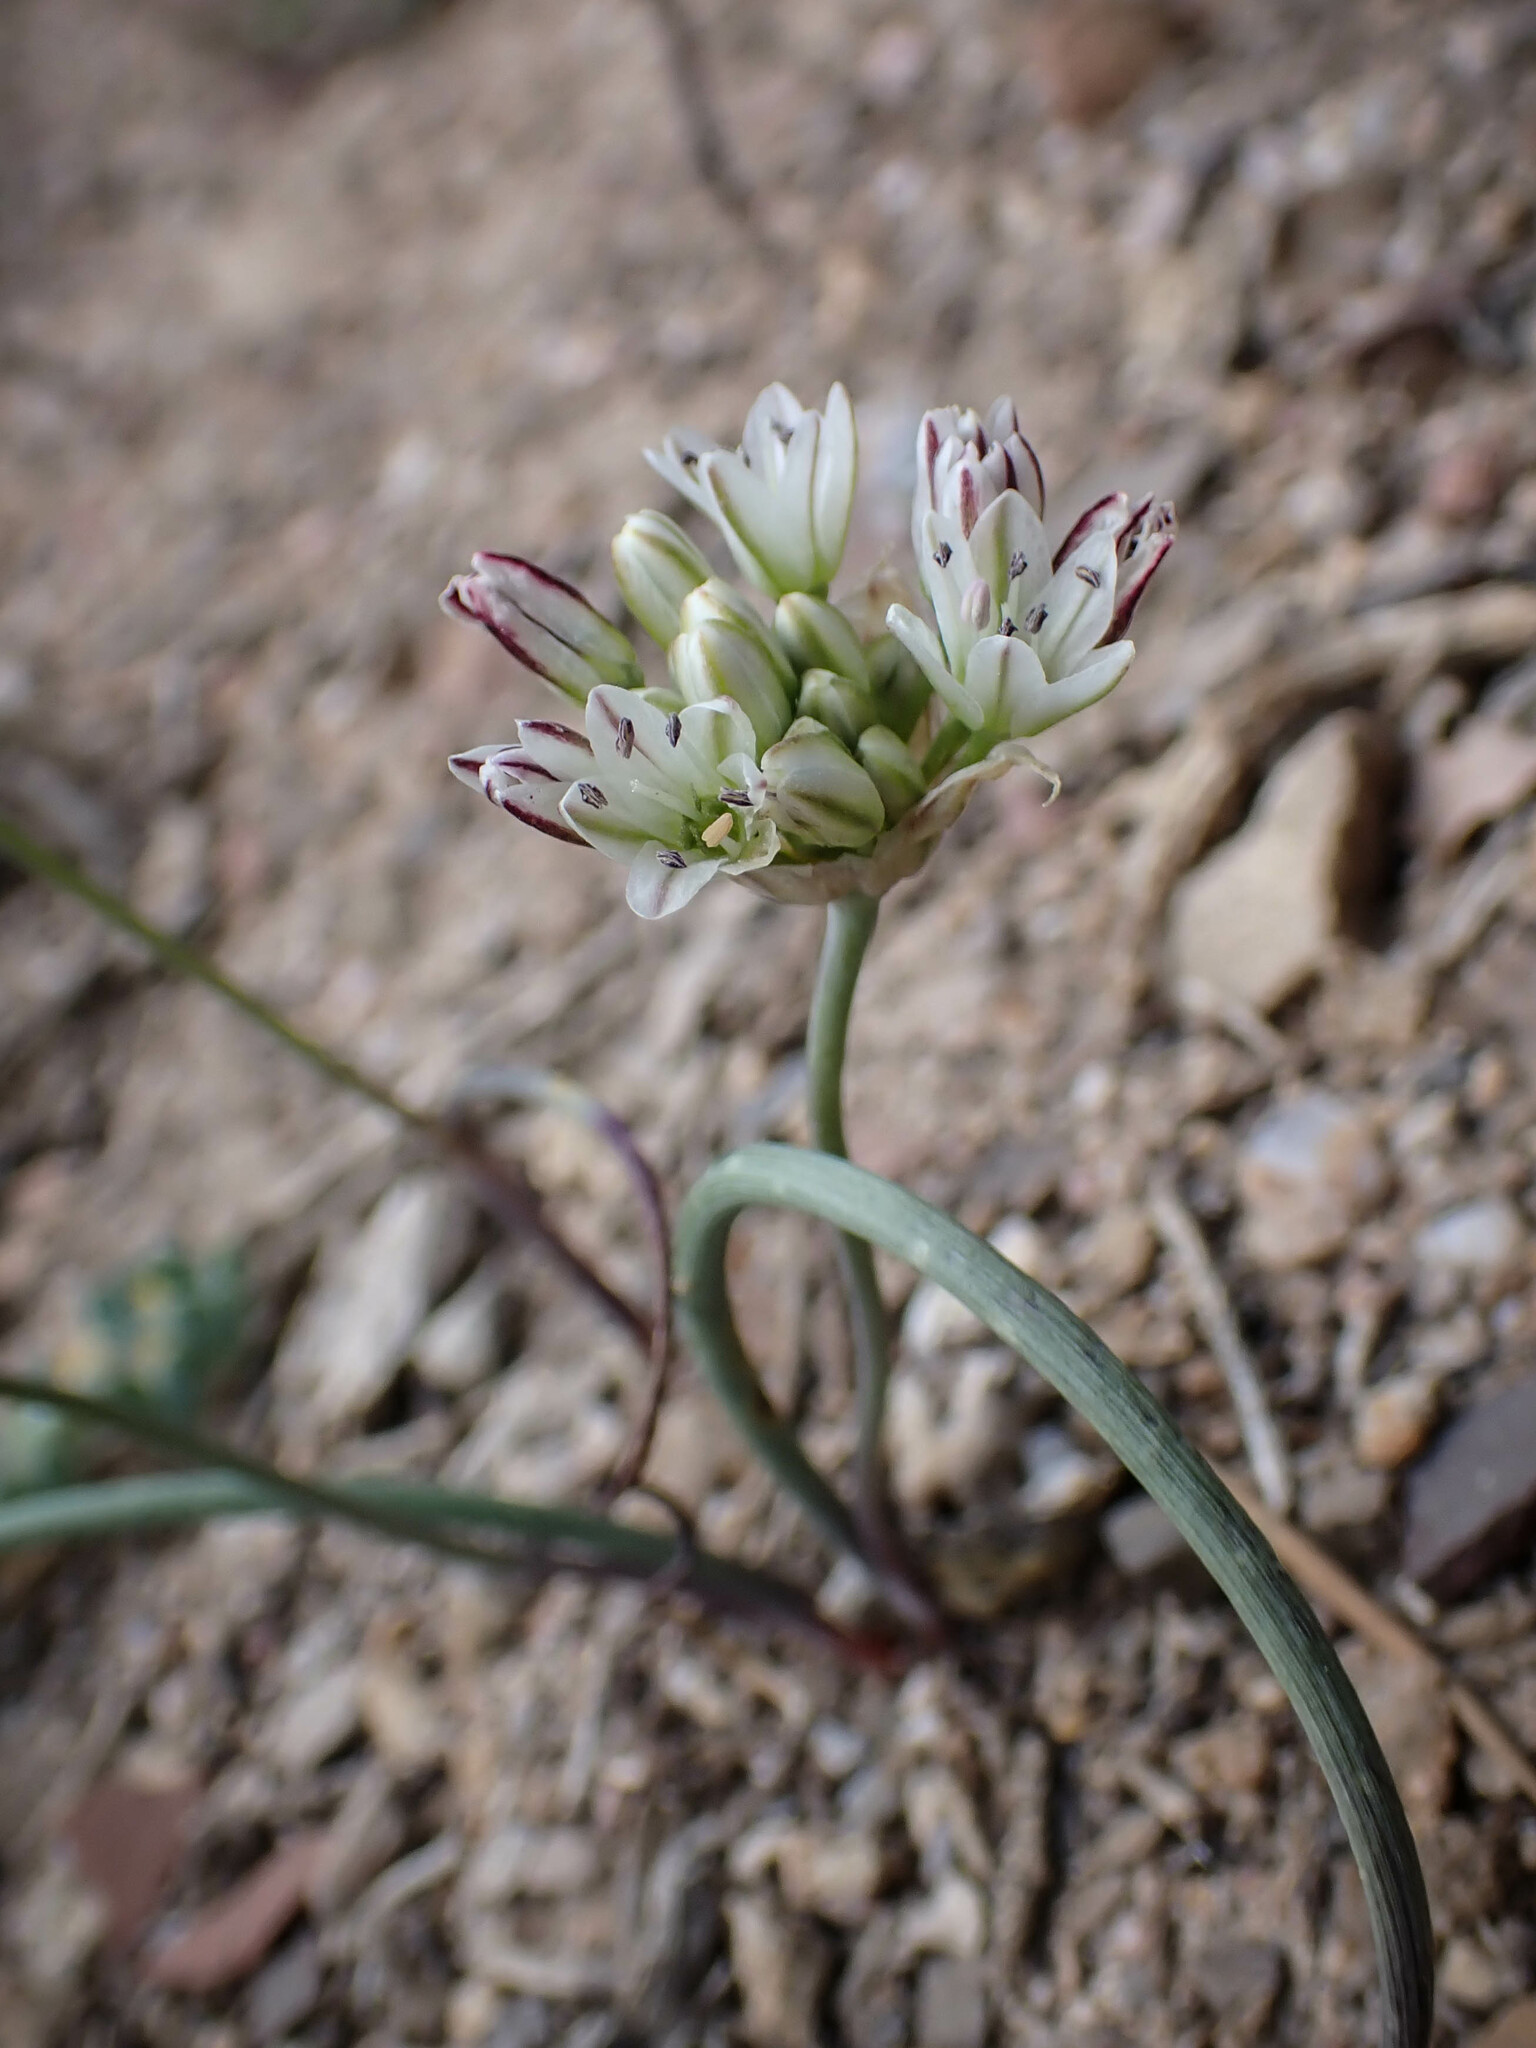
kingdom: Plantae
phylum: Tracheophyta
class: Liliopsida
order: Asparagales
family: Amaryllidaceae
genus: Allium
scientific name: Allium lacunosum
